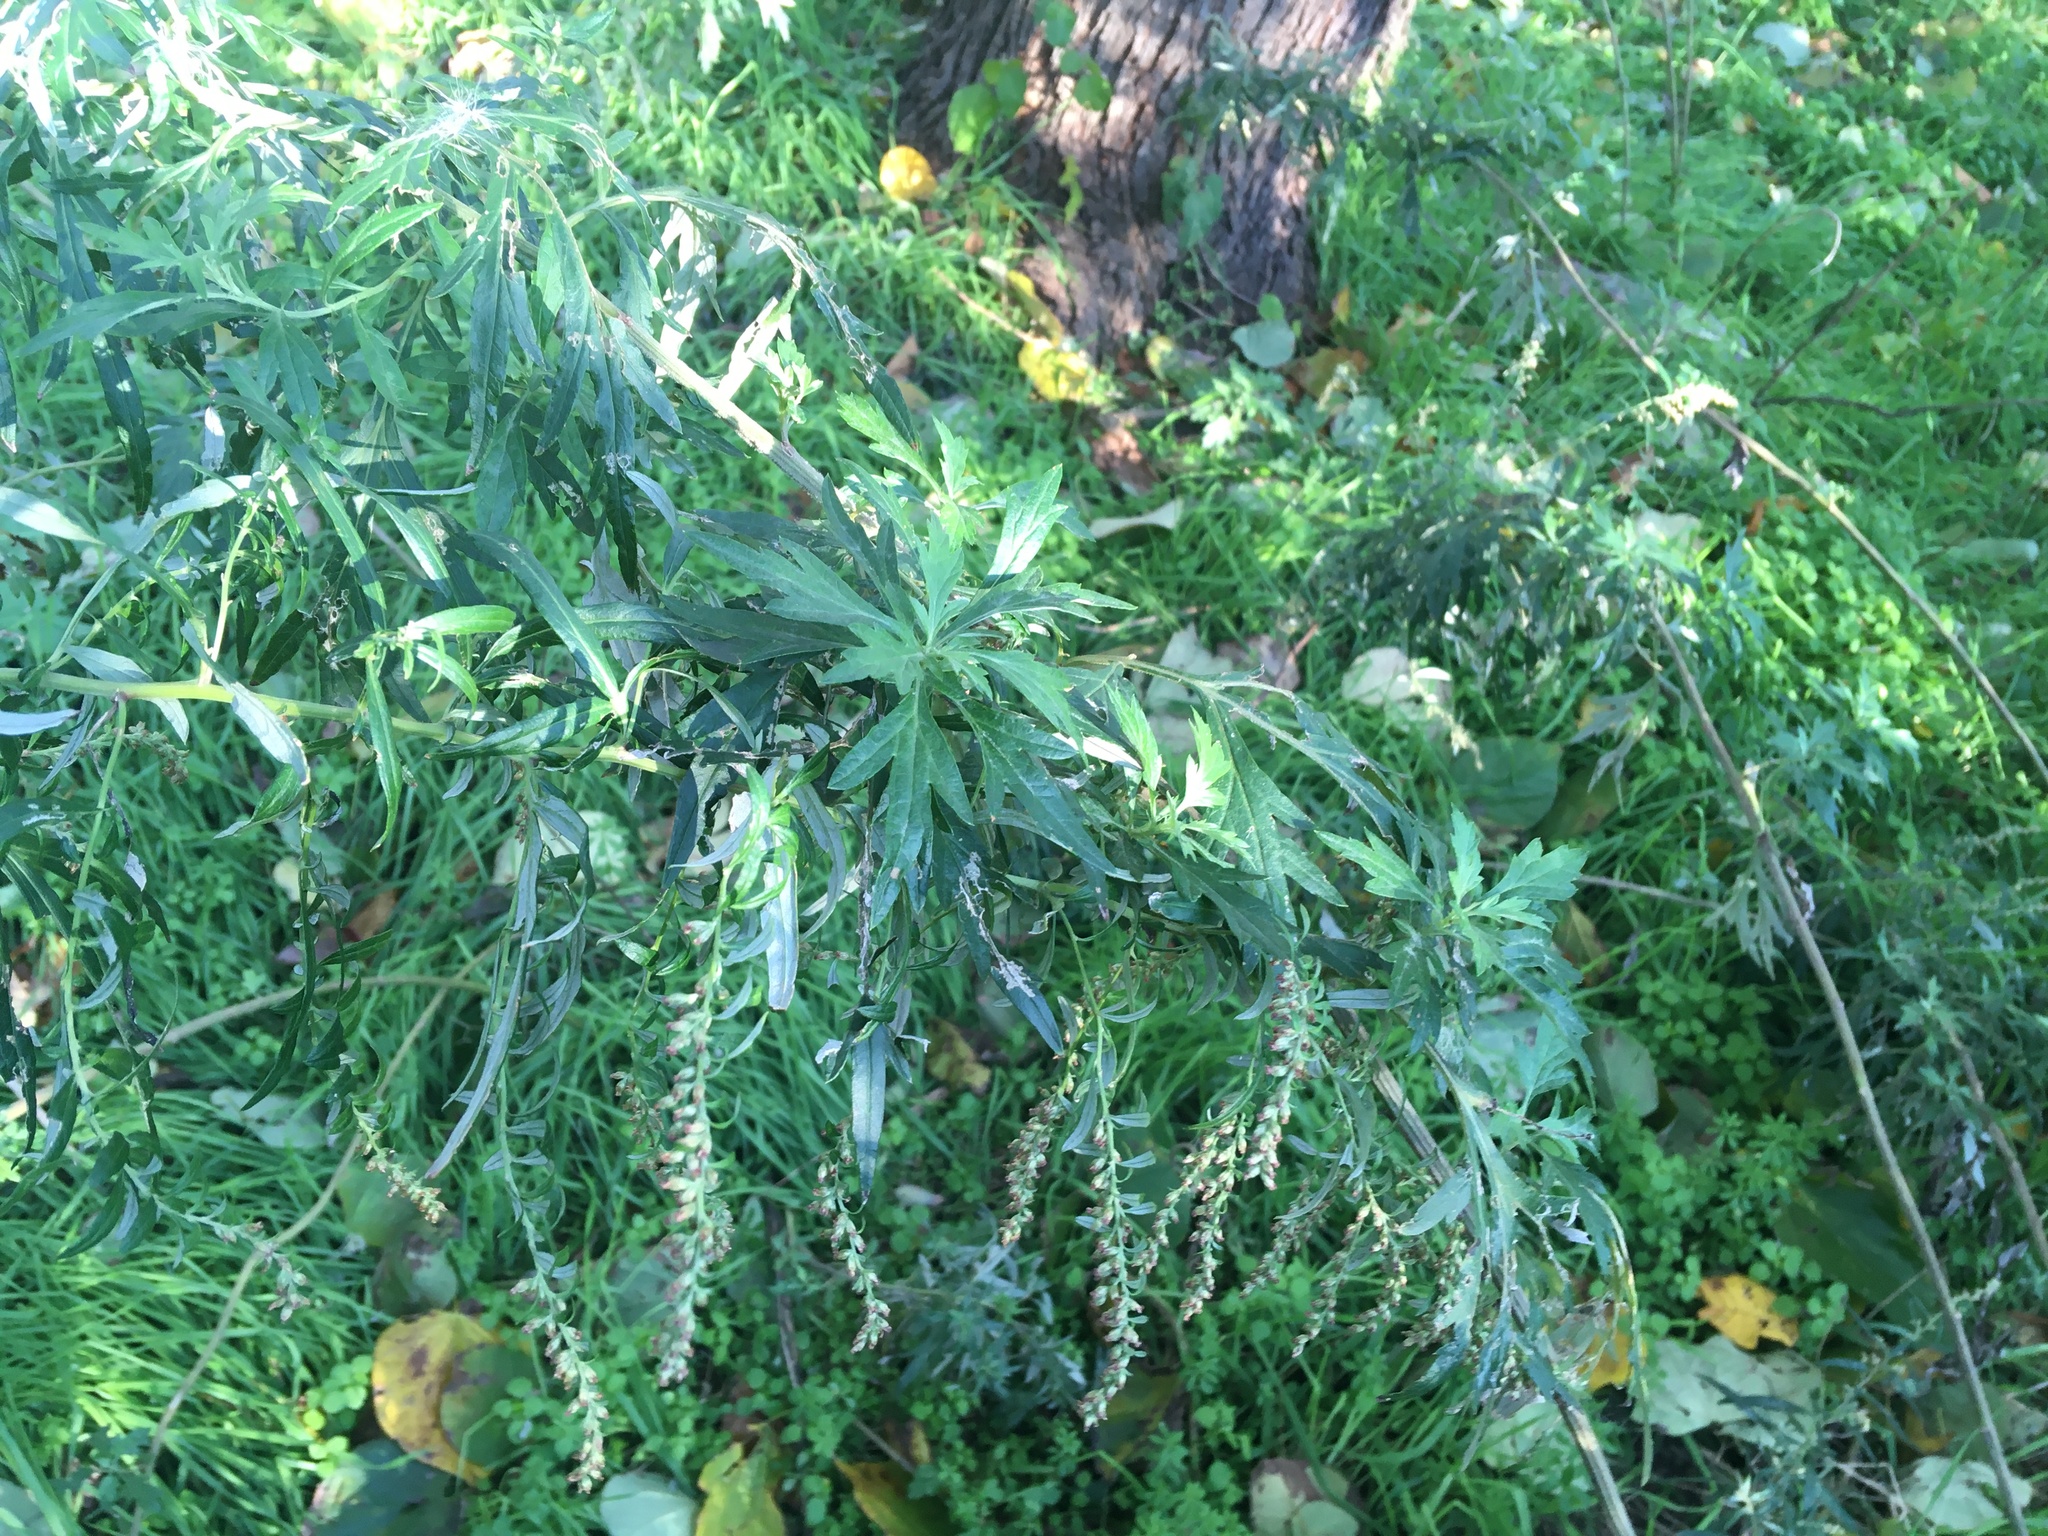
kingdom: Plantae
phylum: Tracheophyta
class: Magnoliopsida
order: Asterales
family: Asteraceae
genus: Artemisia
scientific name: Artemisia vulgaris
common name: Mugwort
